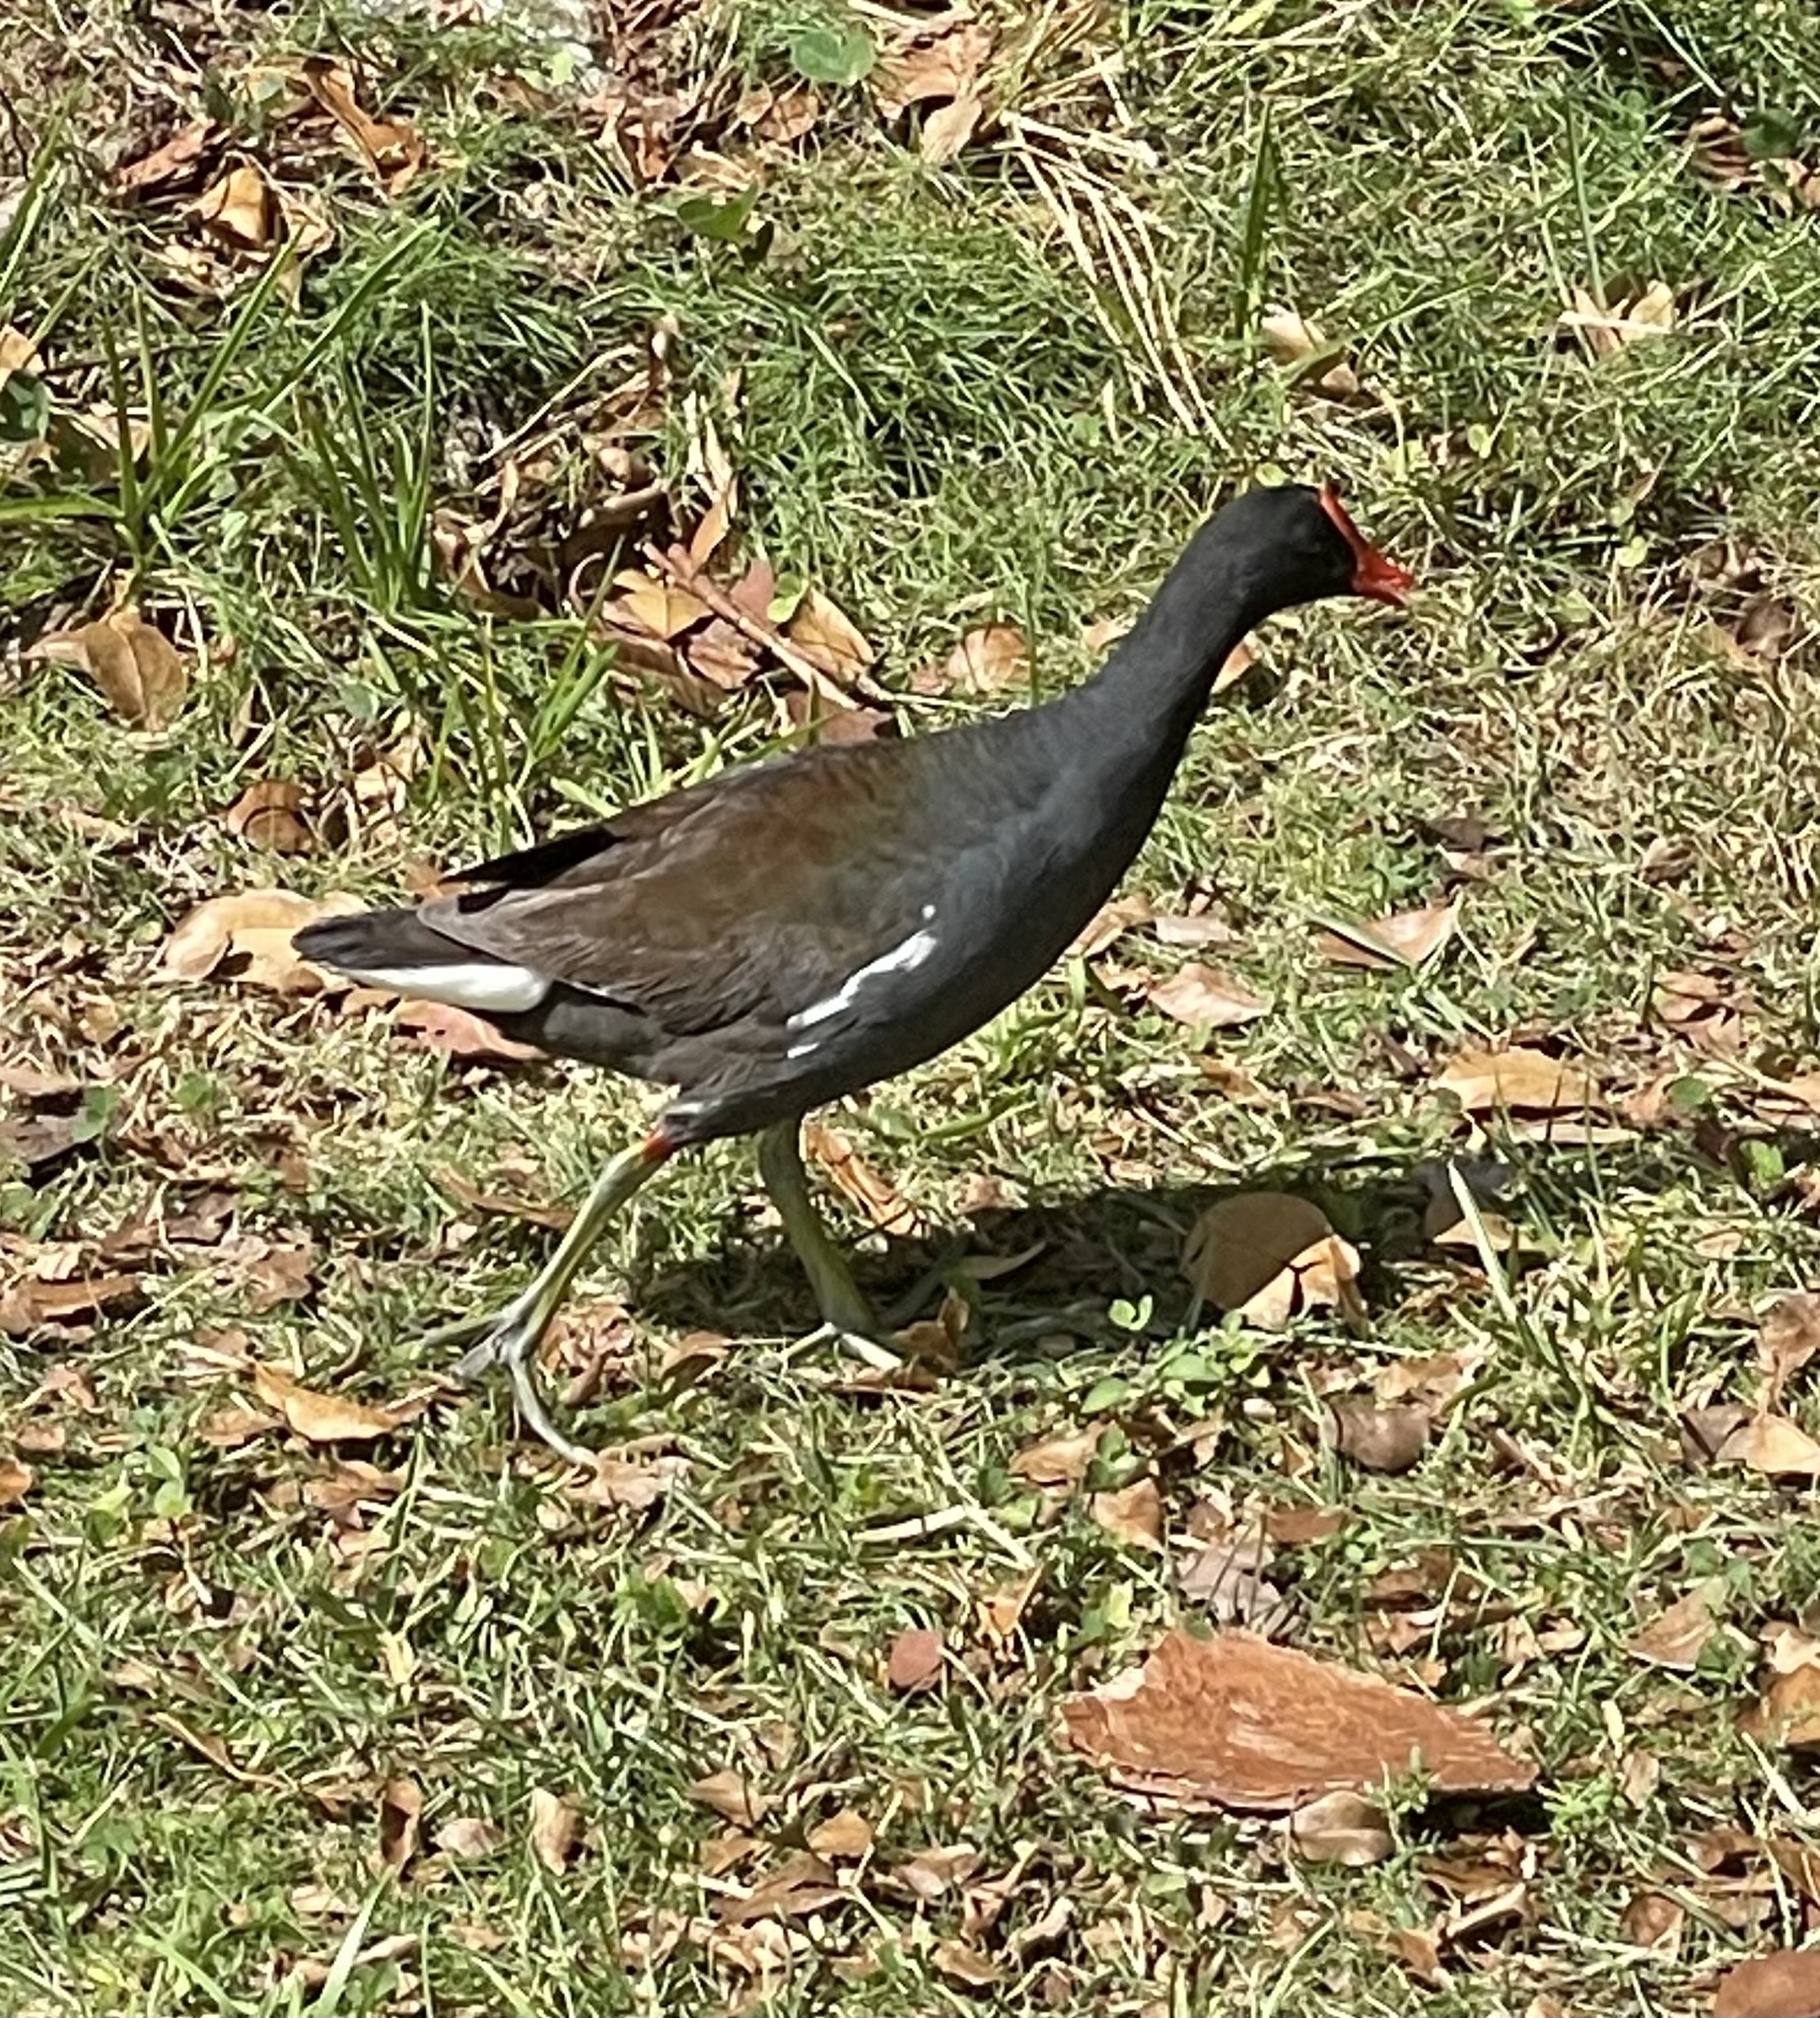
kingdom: Animalia
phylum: Chordata
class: Aves
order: Gruiformes
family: Rallidae
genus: Gallinula
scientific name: Gallinula chloropus
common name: Common moorhen
